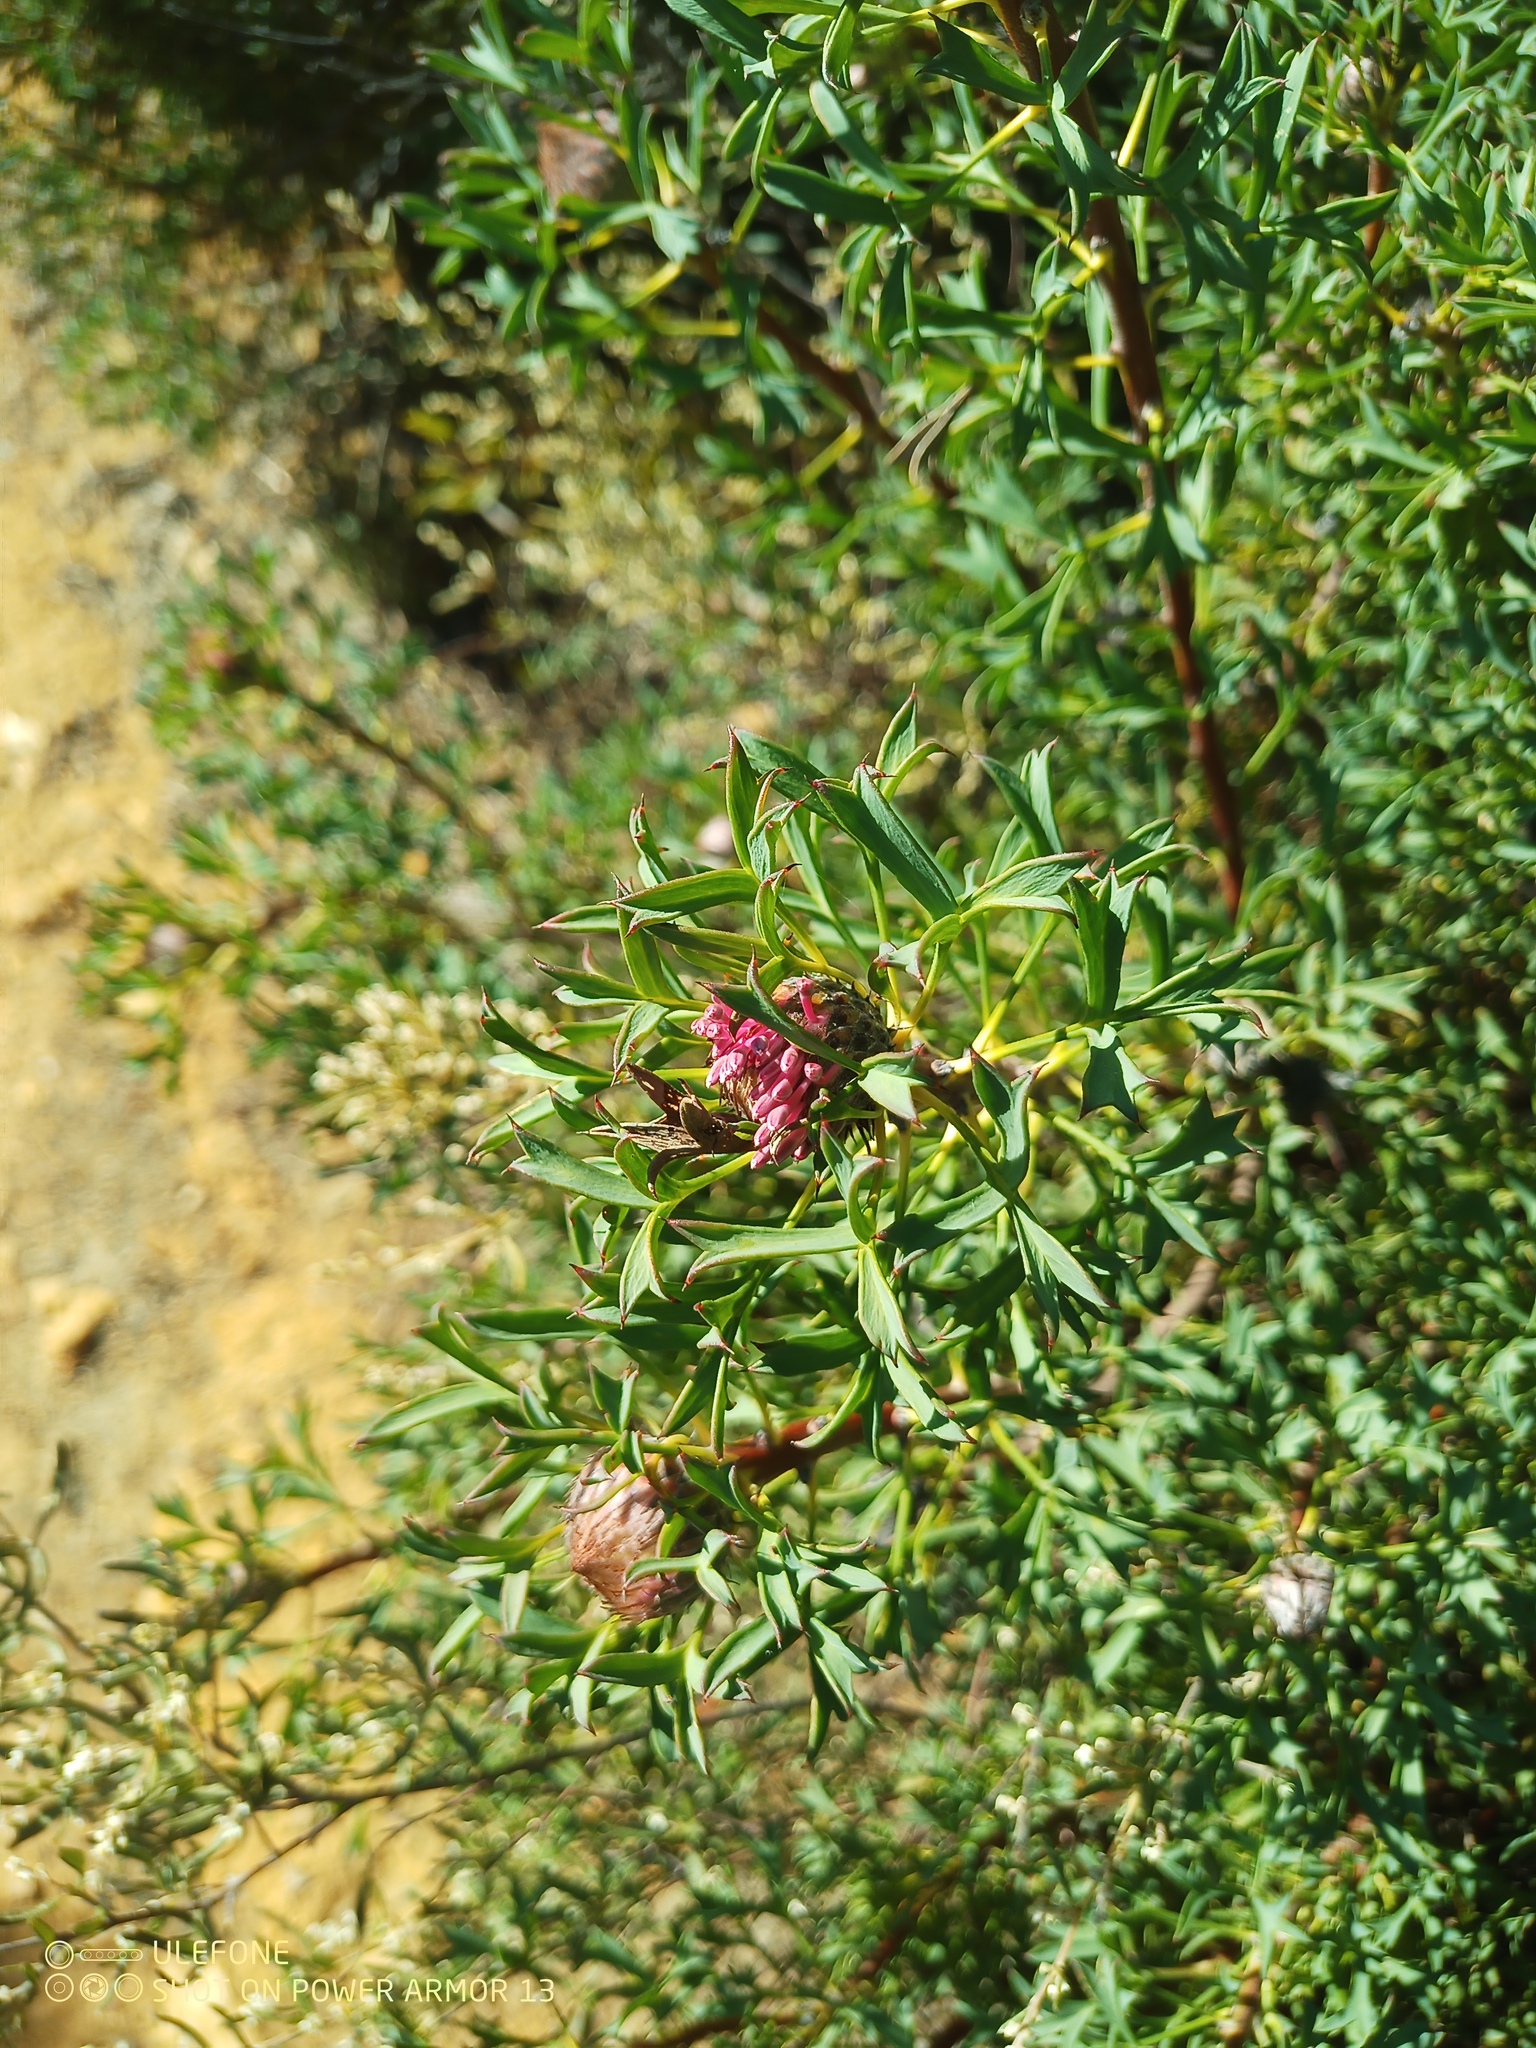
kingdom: Plantae
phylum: Tracheophyta
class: Magnoliopsida
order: Proteales
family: Proteaceae
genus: Isopogon
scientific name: Isopogon dubius
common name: Pincushion-coneflower
